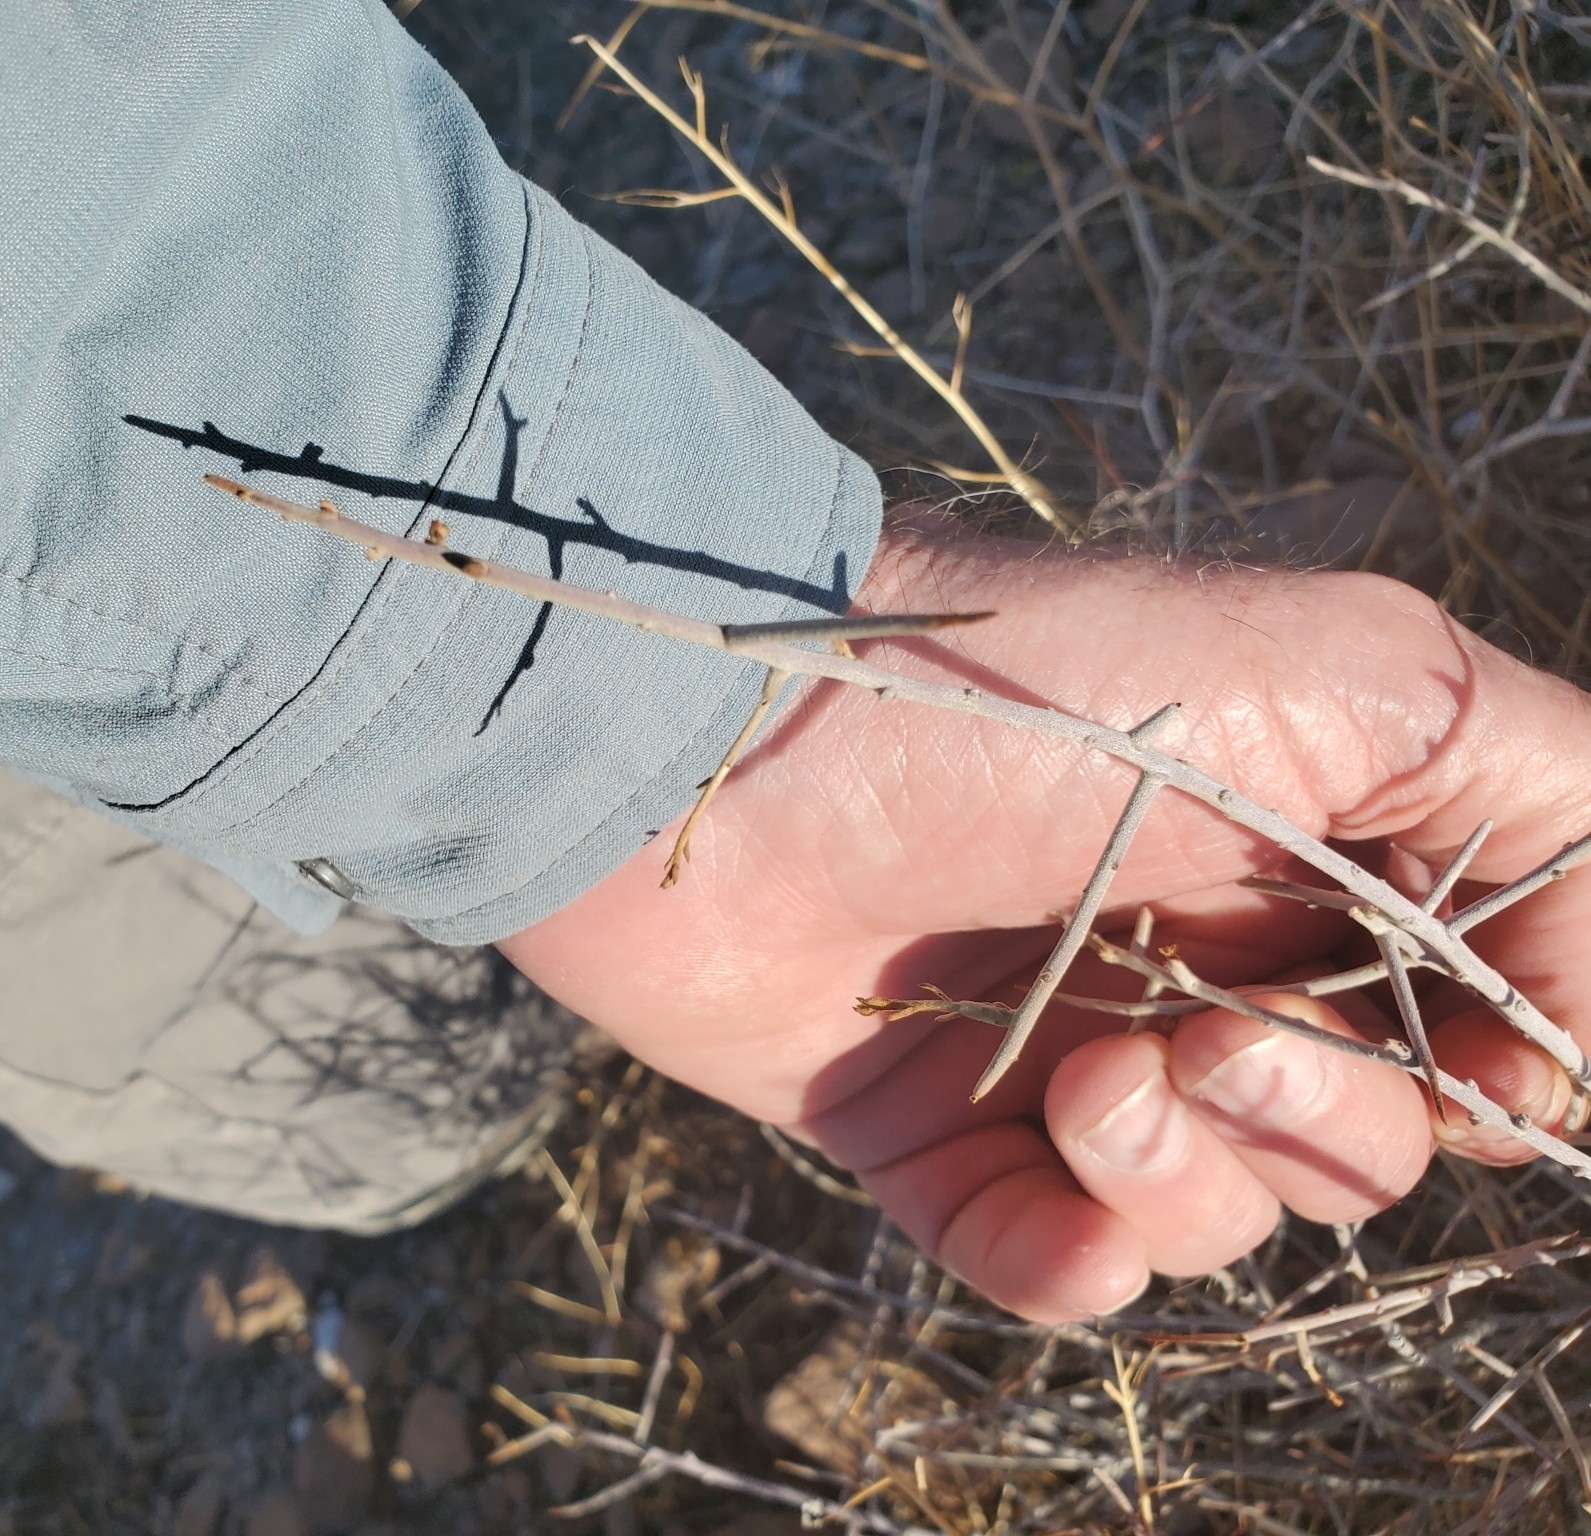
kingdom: Plantae
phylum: Tracheophyta
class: Magnoliopsida
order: Zygophyllales
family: Krameriaceae
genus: Krameria
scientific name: Krameria bicolor
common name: White ratany
